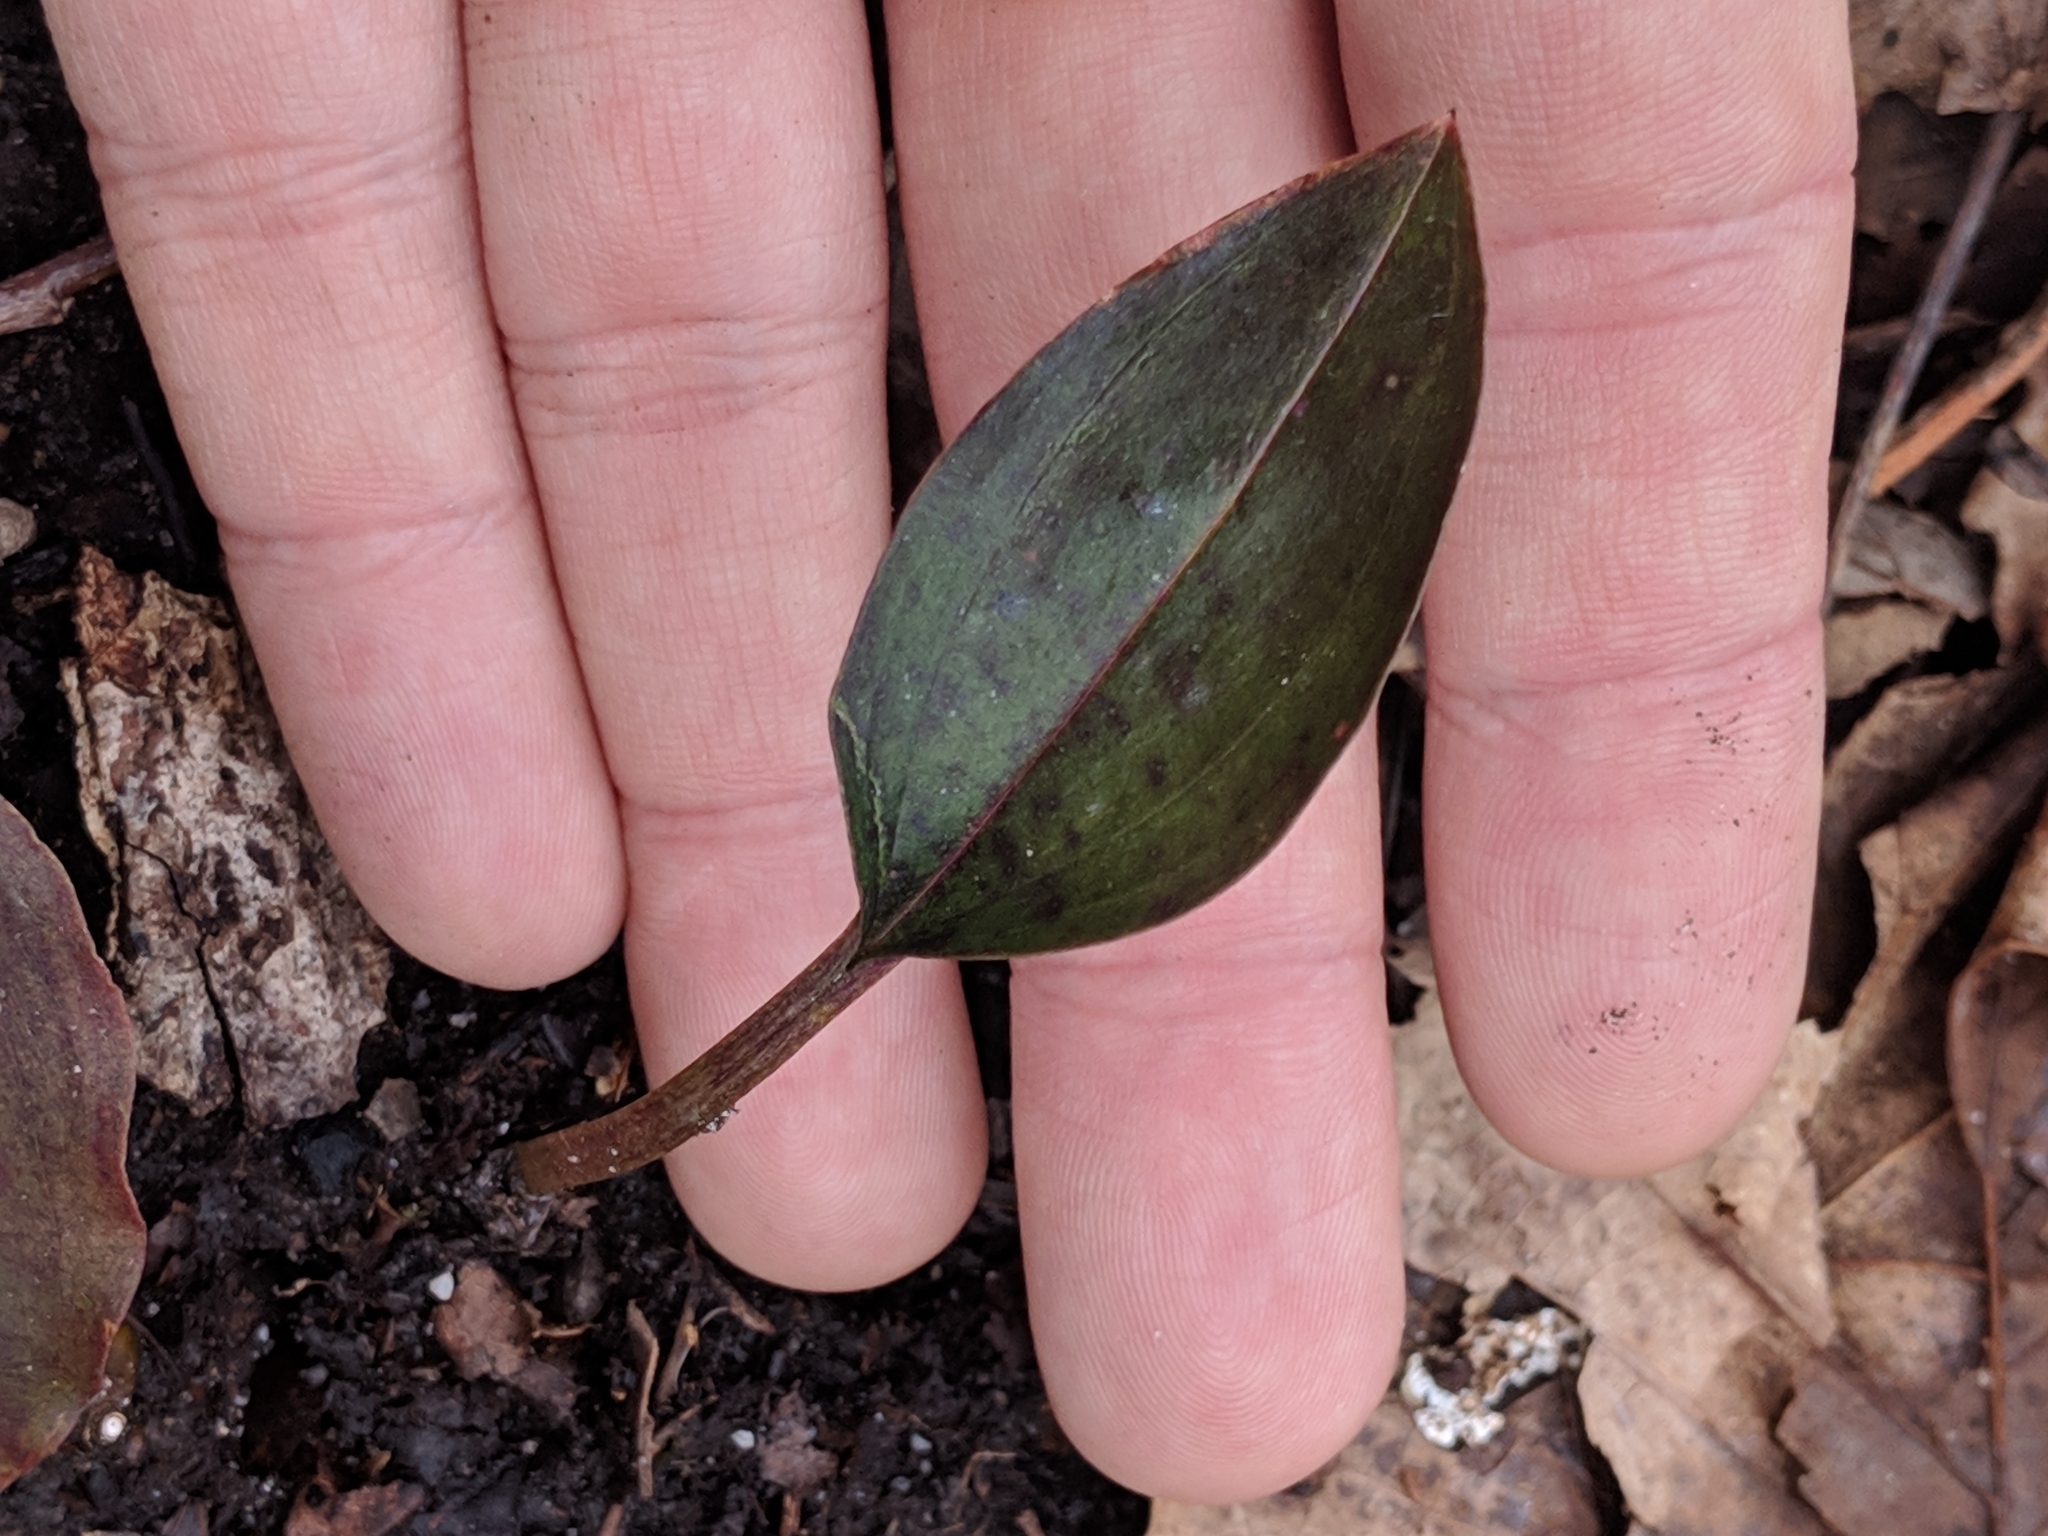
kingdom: Plantae
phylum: Tracheophyta
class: Liliopsida
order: Asparagales
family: Orchidaceae
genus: Tipularia
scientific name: Tipularia discolor
